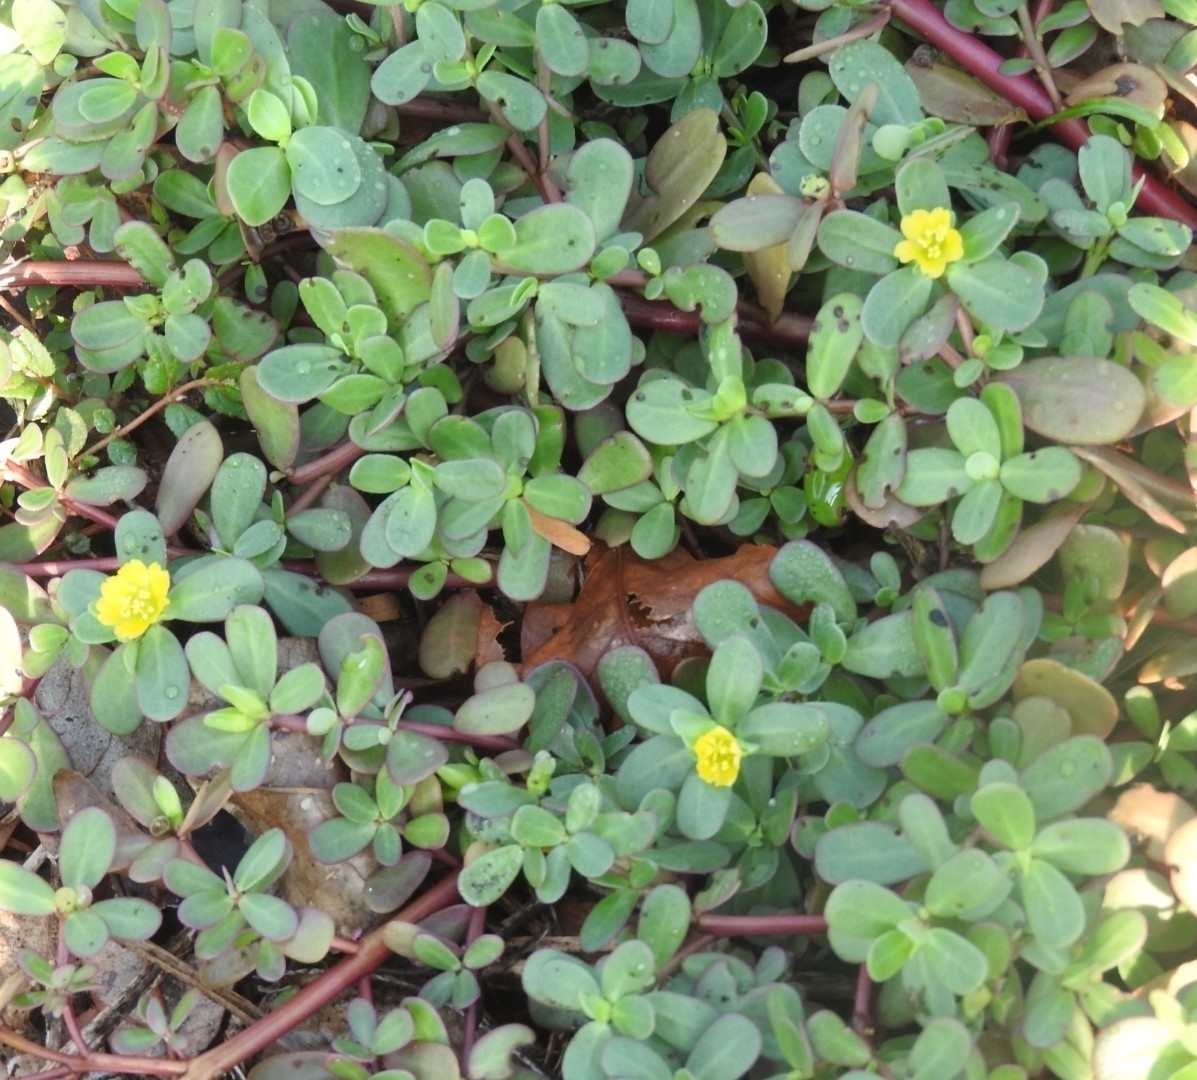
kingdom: Plantae
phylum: Tracheophyta
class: Magnoliopsida
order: Caryophyllales
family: Portulacaceae
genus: Portulaca
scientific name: Portulaca oleracea
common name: Common purslane
